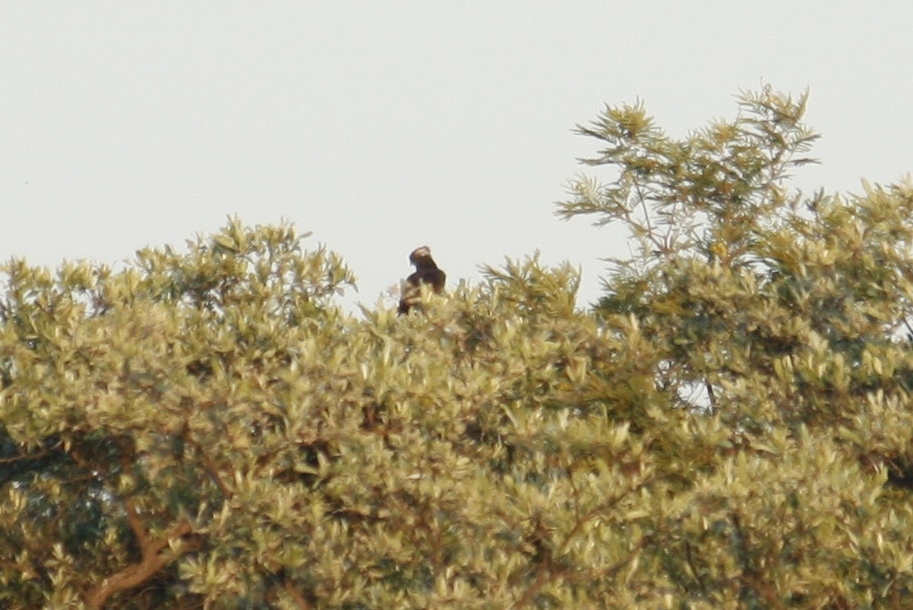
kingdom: Animalia
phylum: Chordata
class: Aves
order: Accipitriformes
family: Accipitridae
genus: Circaetus
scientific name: Circaetus cinereus
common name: Brown snake eagle
